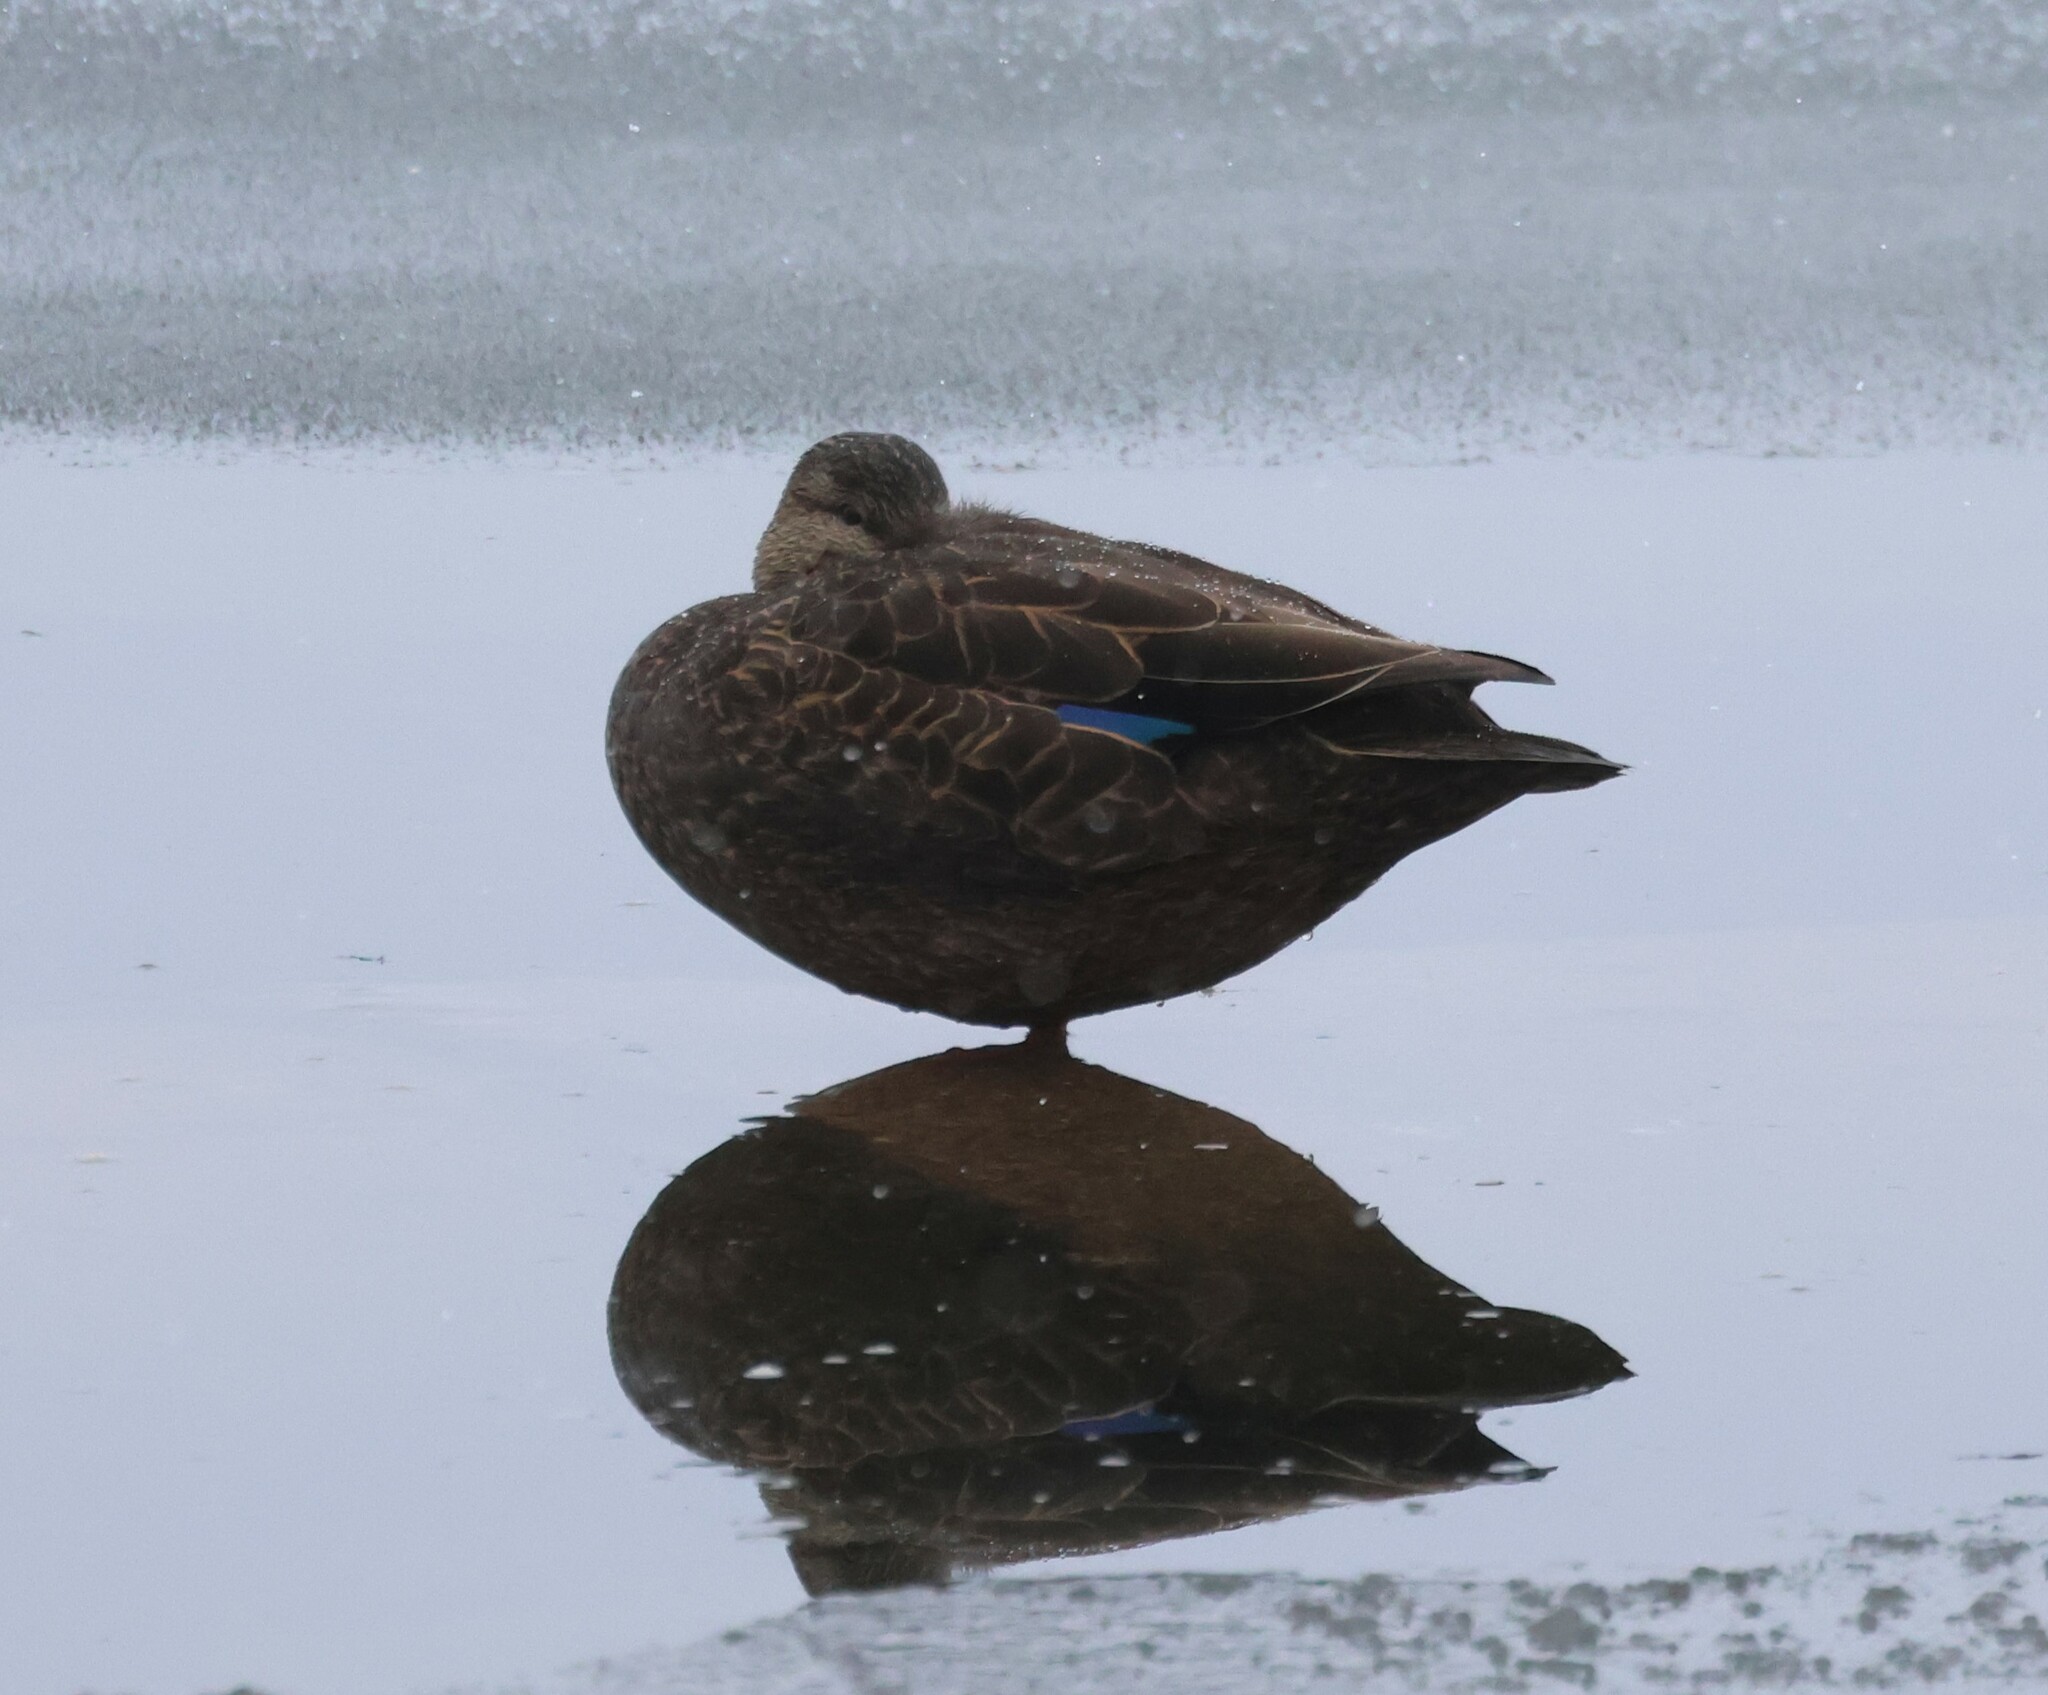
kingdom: Animalia
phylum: Chordata
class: Aves
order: Anseriformes
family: Anatidae
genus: Anas
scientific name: Anas rubripes
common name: American black duck
